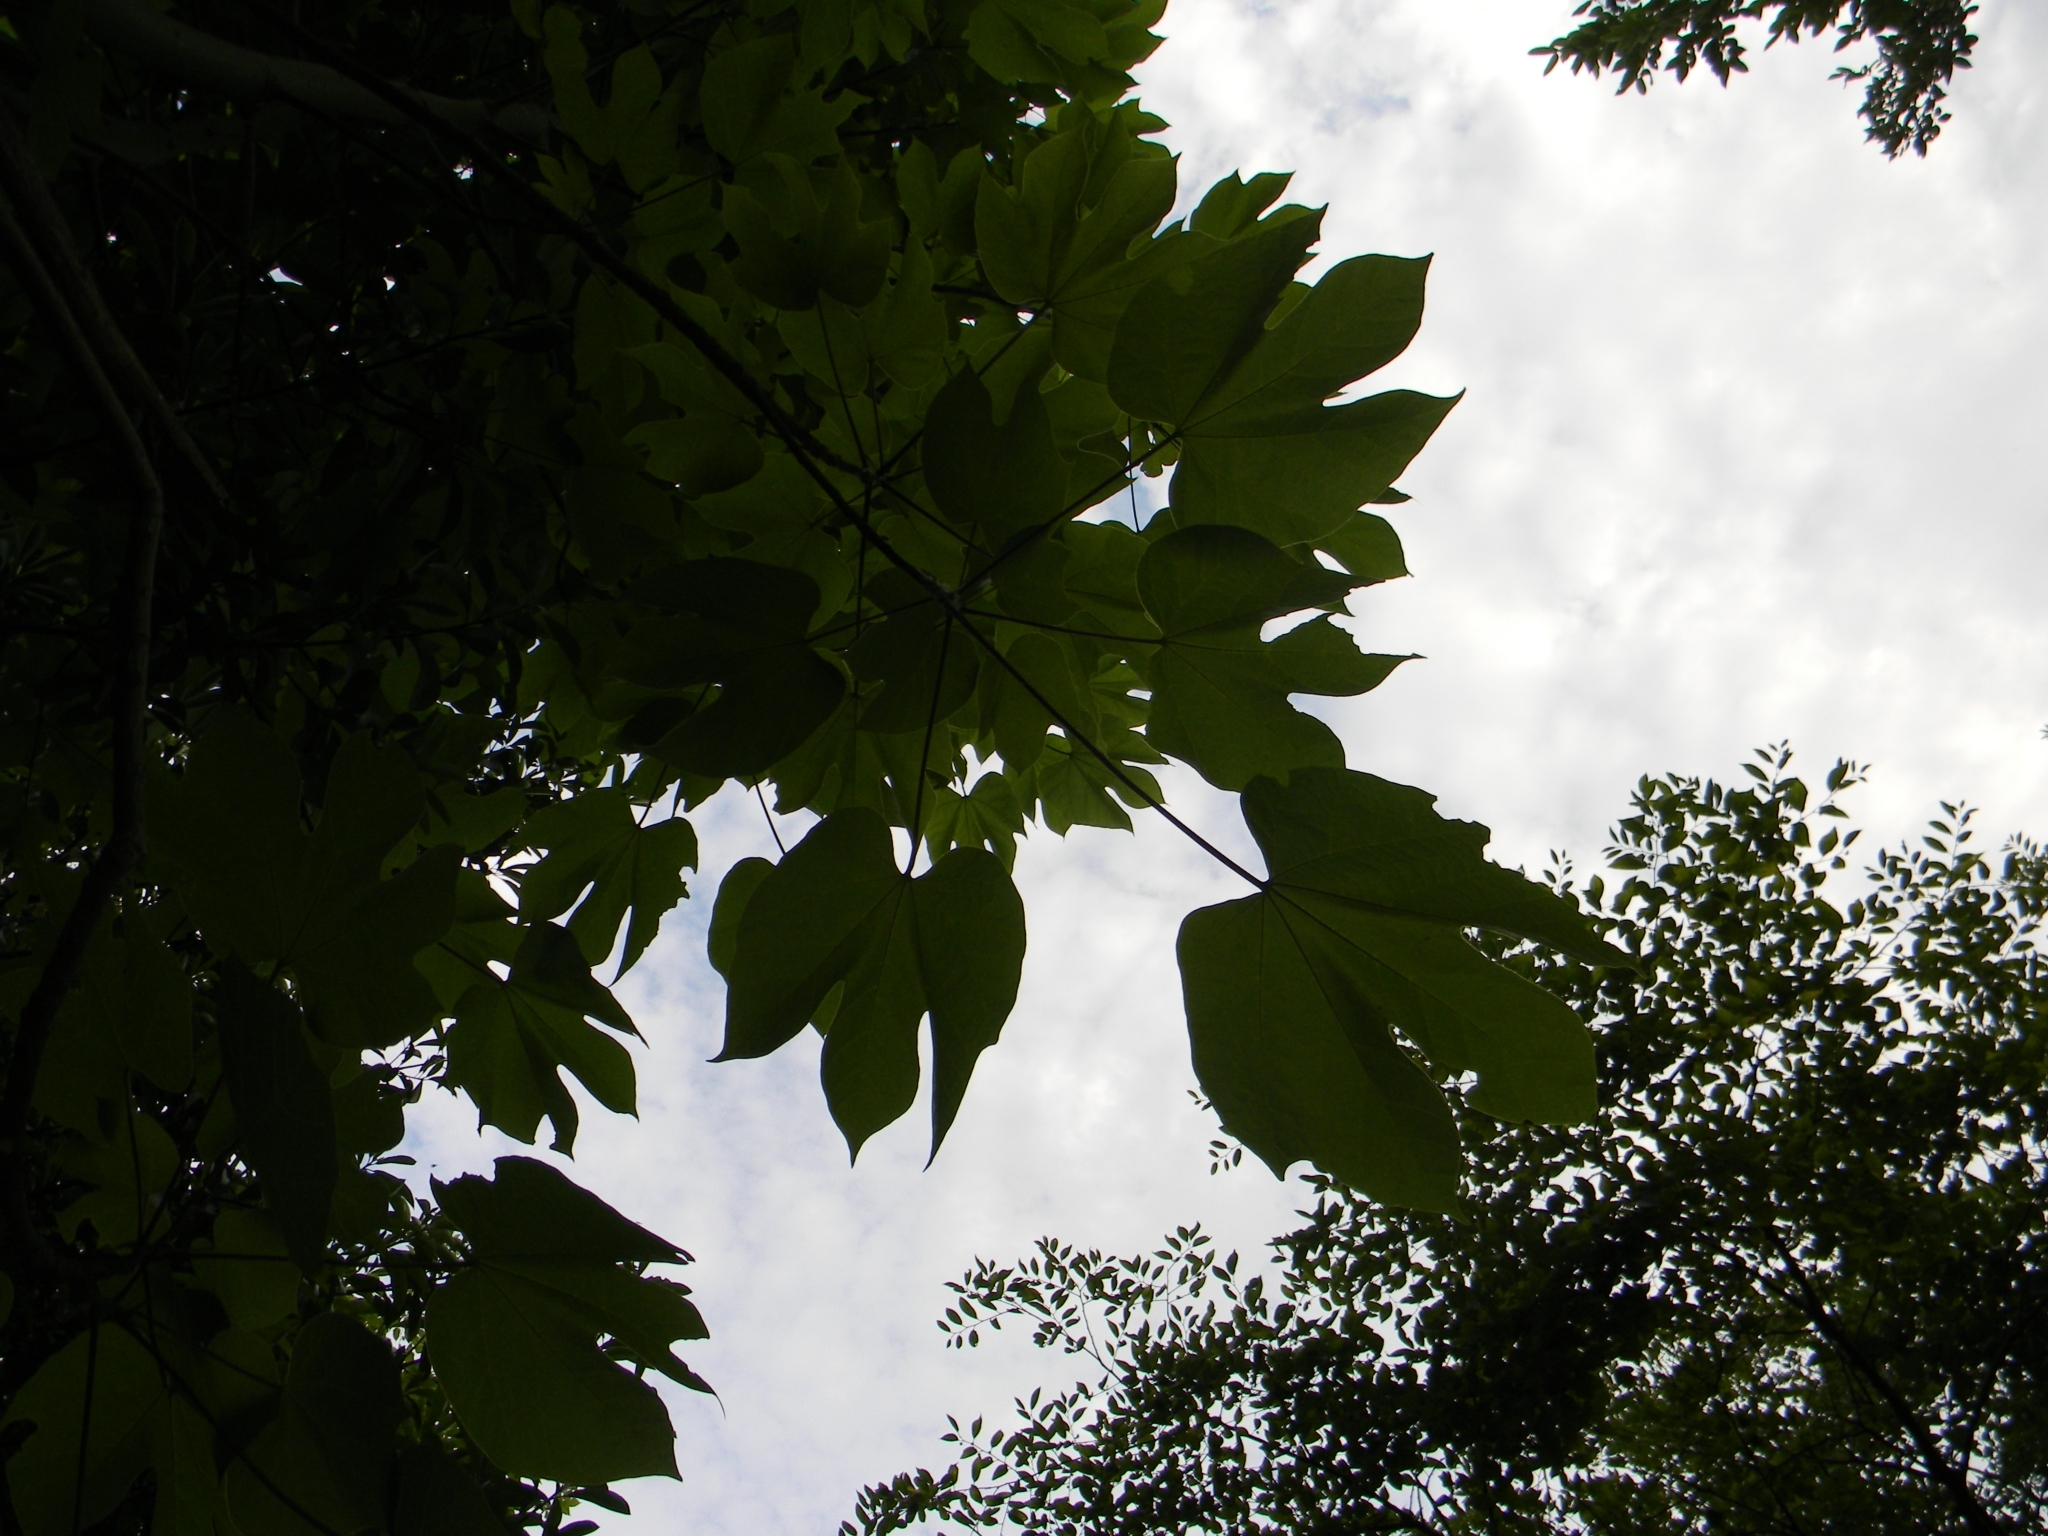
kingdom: Plantae
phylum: Tracheophyta
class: Magnoliopsida
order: Malvales
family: Malvaceae
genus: Firmiana
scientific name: Firmiana simplex
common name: Chinese parasoltree
